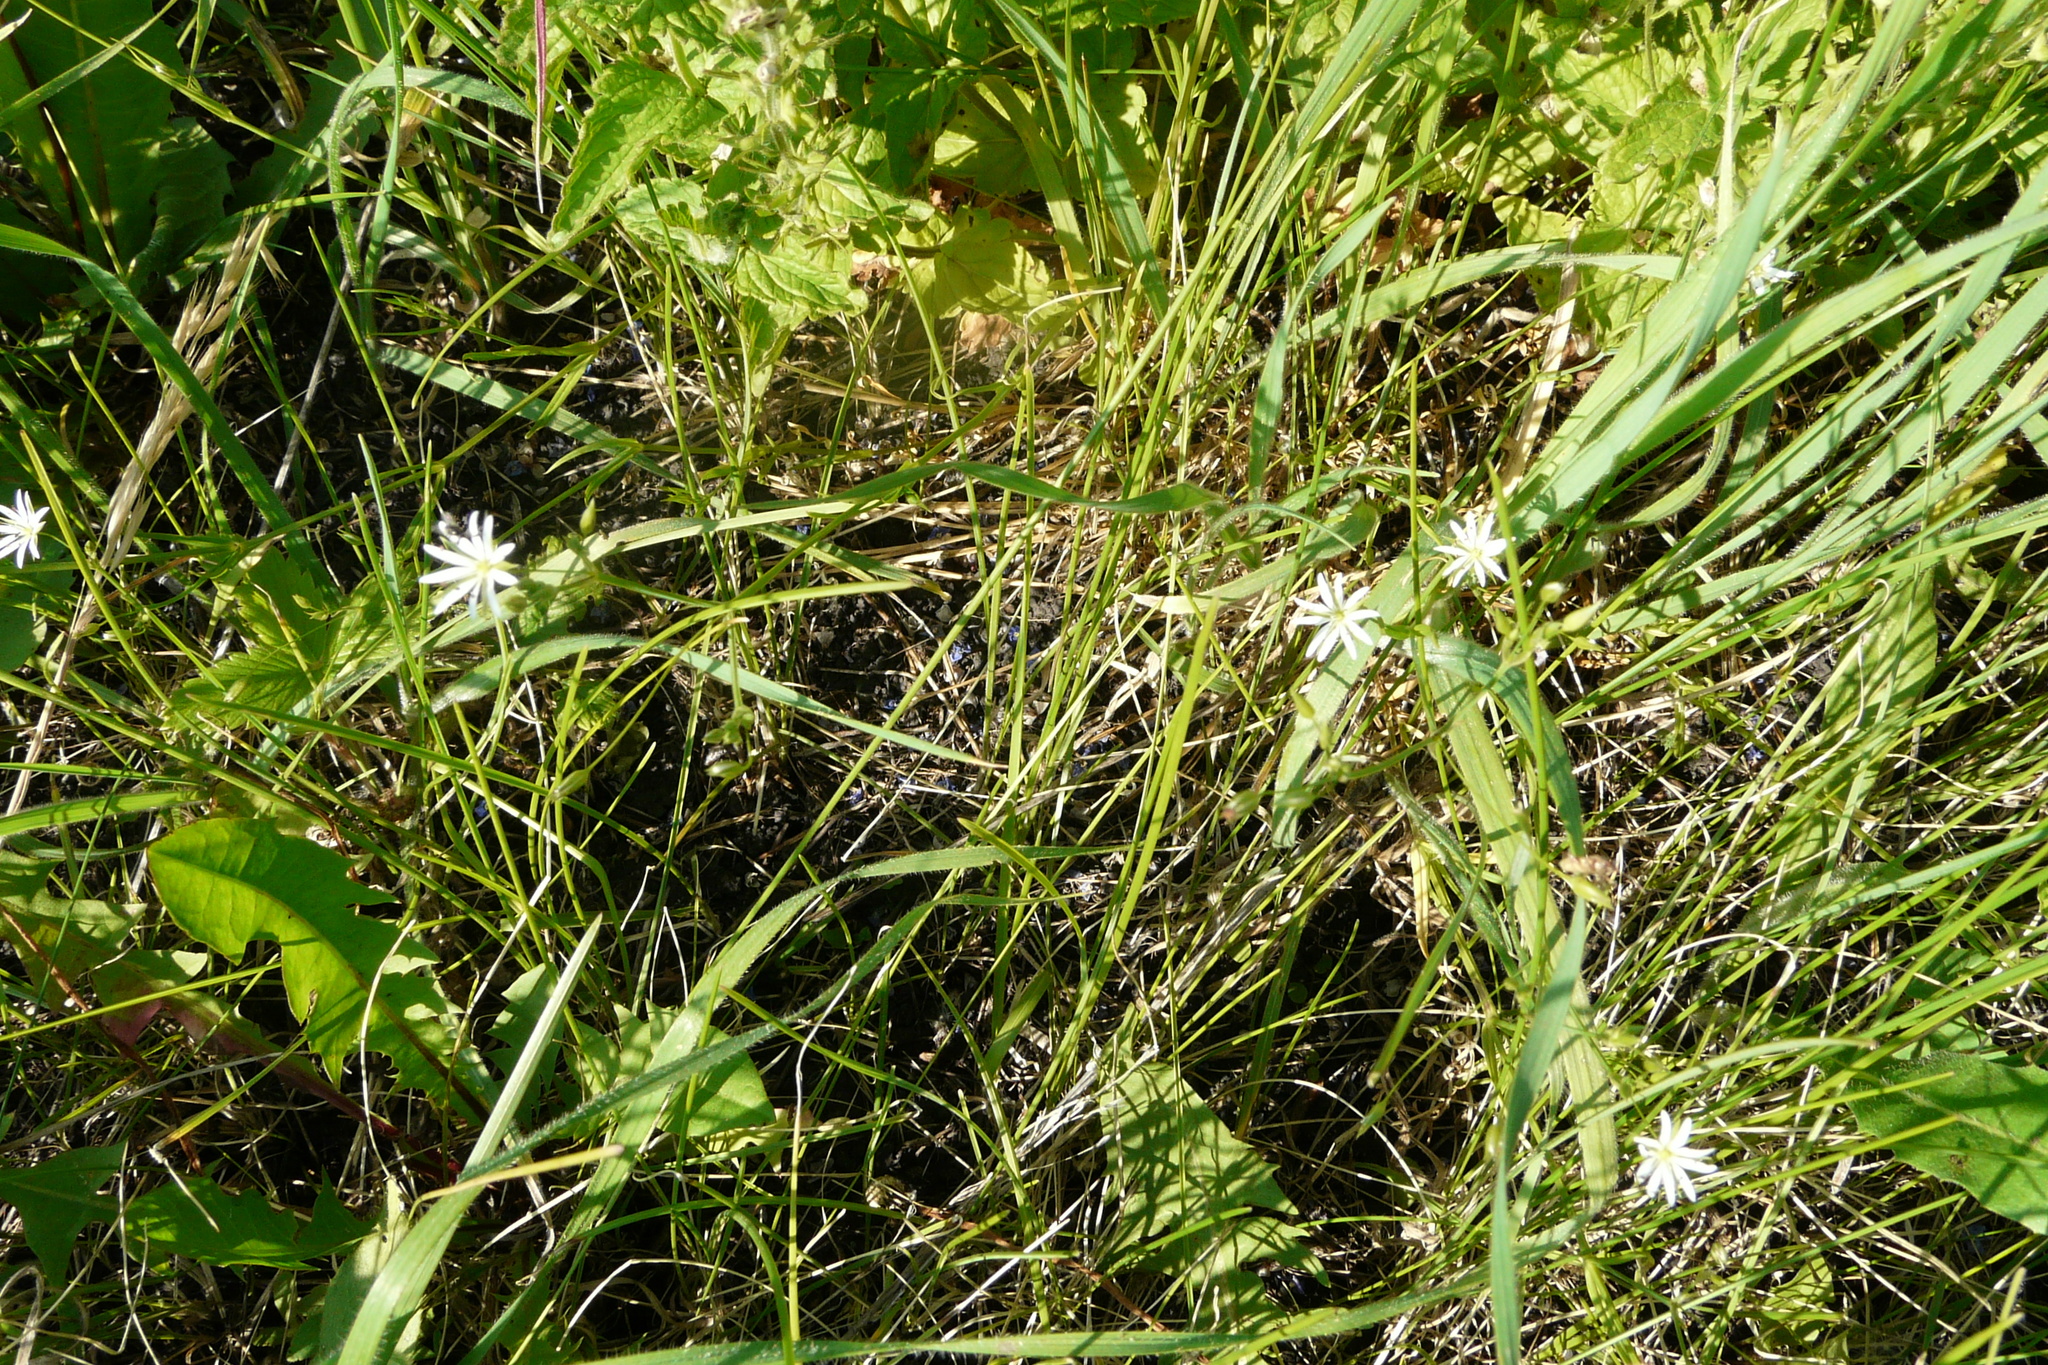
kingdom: Plantae
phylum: Tracheophyta
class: Magnoliopsida
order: Caryophyllales
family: Caryophyllaceae
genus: Stellaria
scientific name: Stellaria graminea
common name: Grass-like starwort
